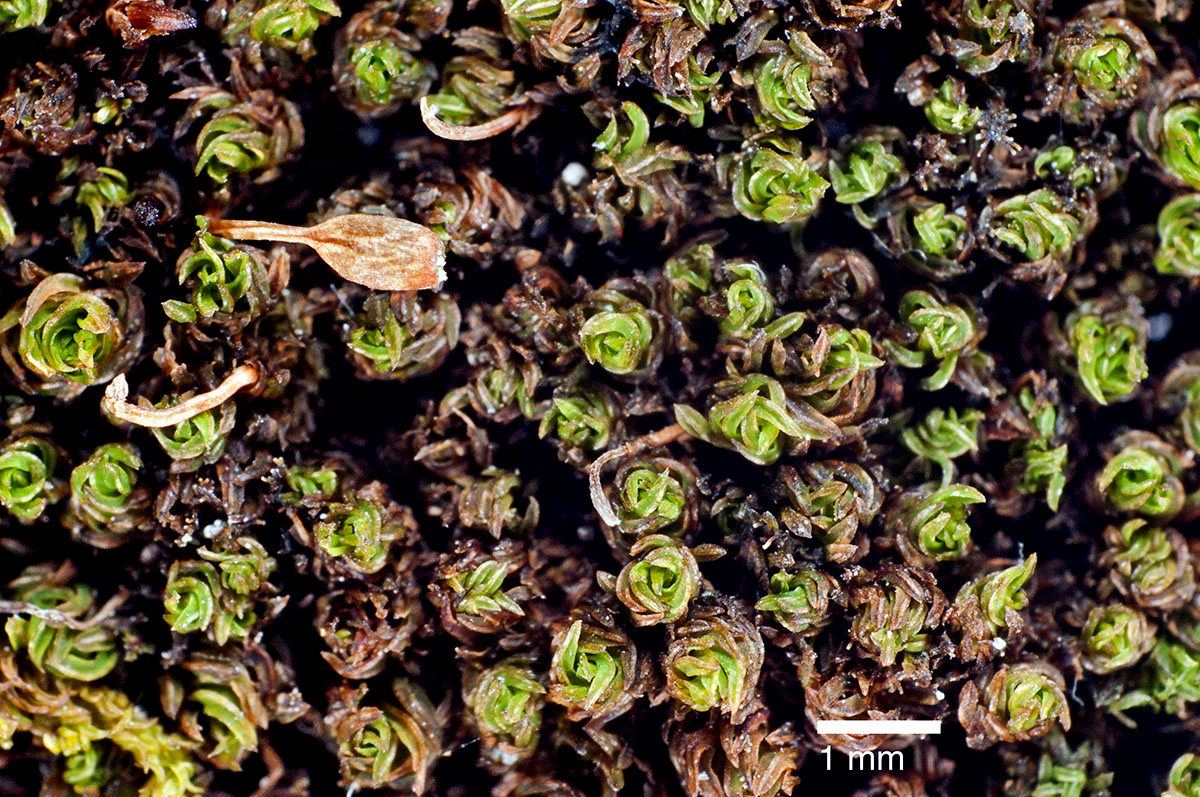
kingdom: Plantae
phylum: Bryophyta
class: Bryopsida
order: Orthotrichales
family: Orthotrichaceae
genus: Macromitrium
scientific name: Macromitrium brevicaule
